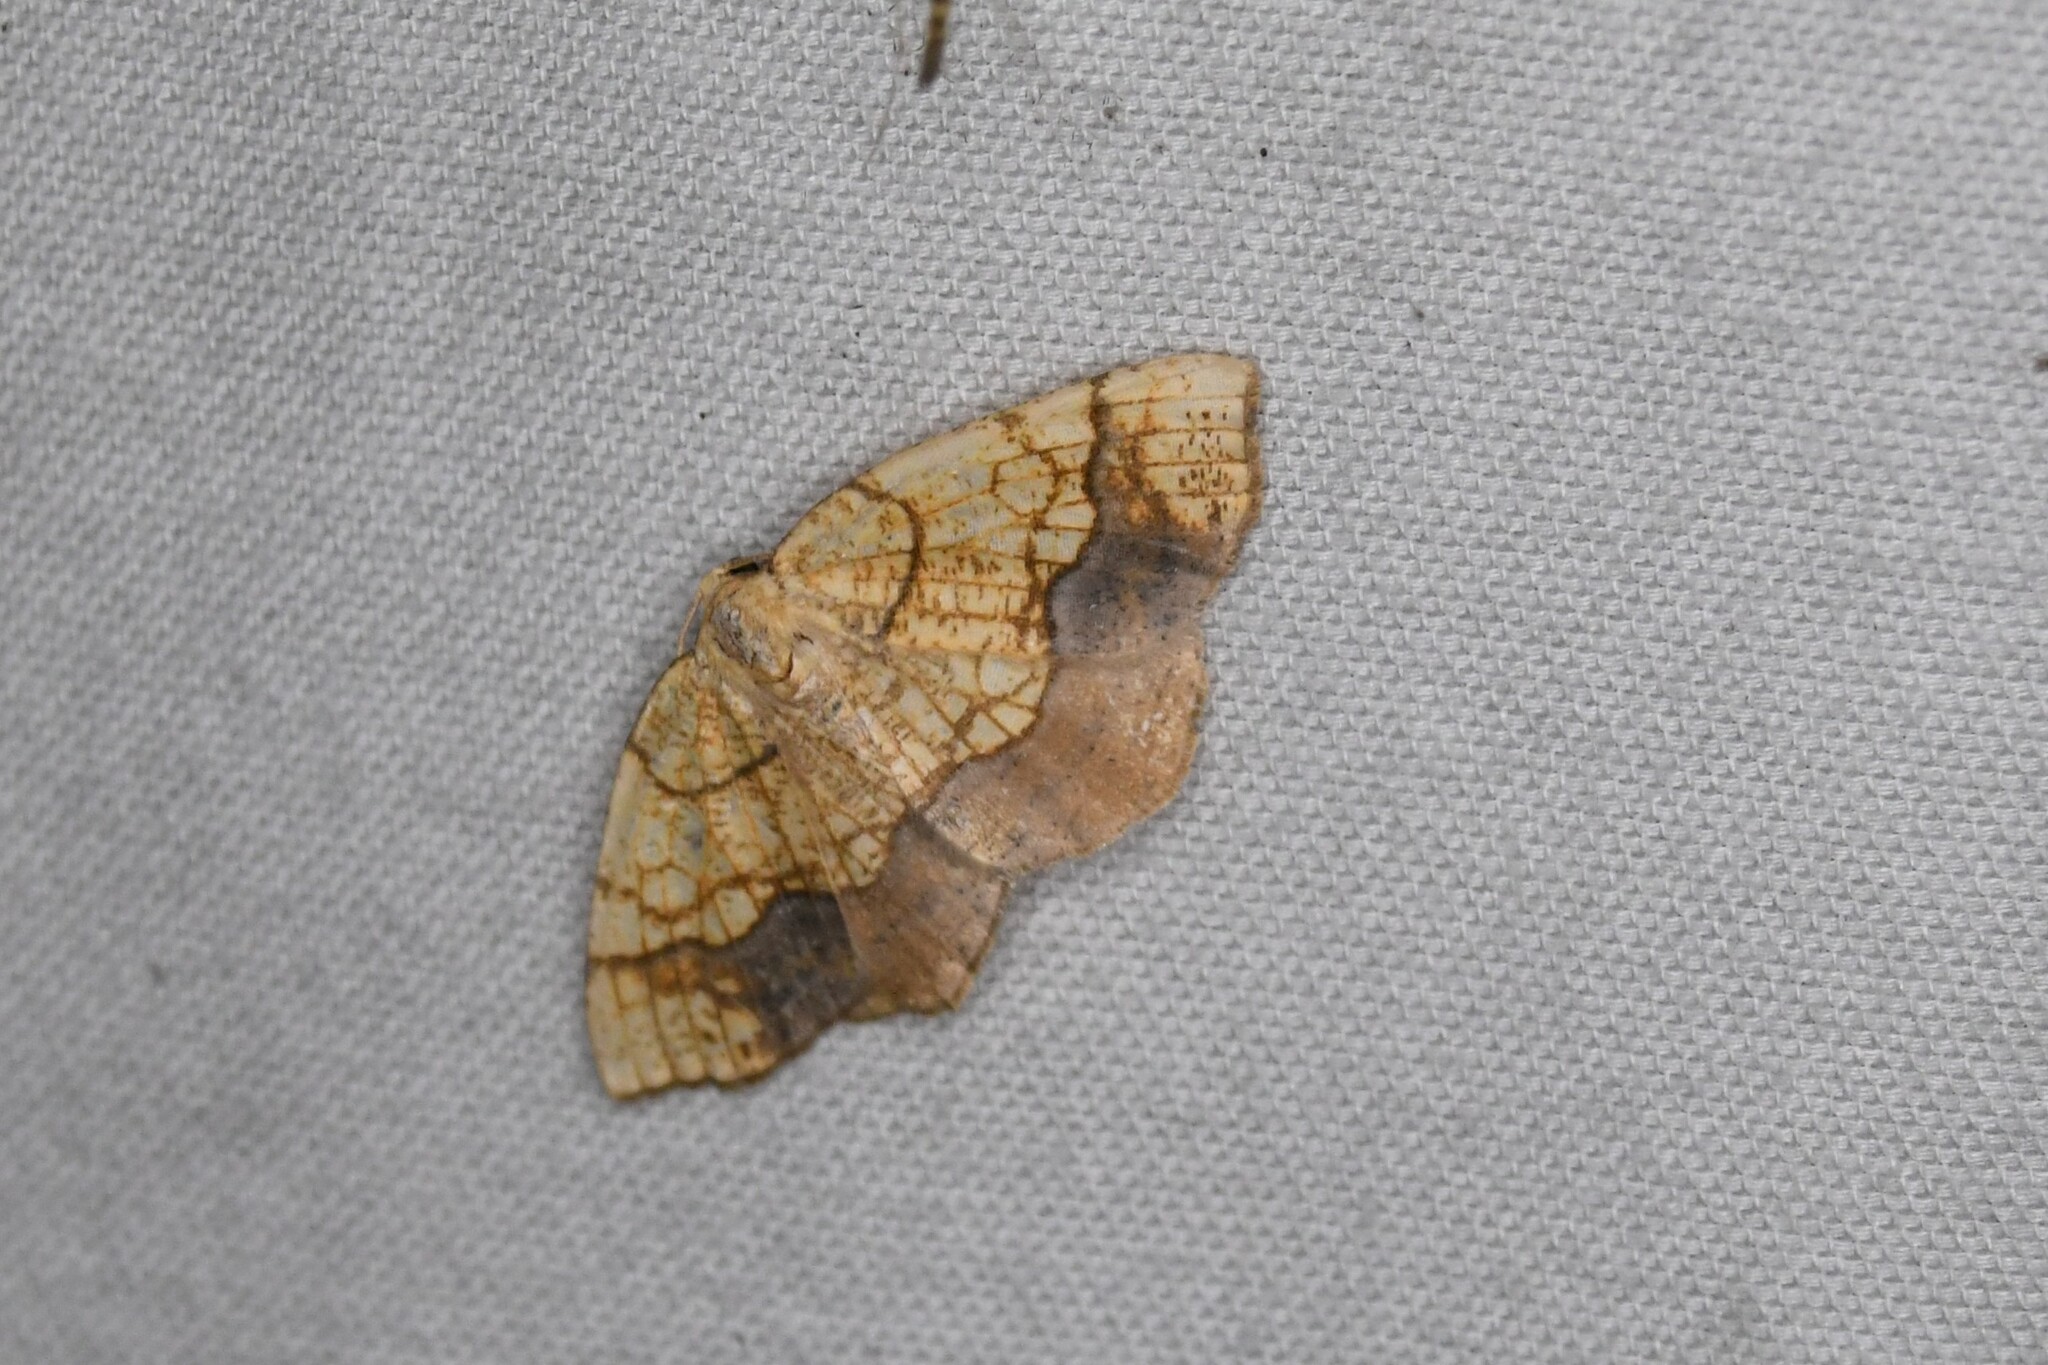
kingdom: Animalia
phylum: Arthropoda
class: Insecta
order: Lepidoptera
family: Geometridae
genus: Nematocampa
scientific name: Nematocampa resistaria
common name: Horned spanworm moth
